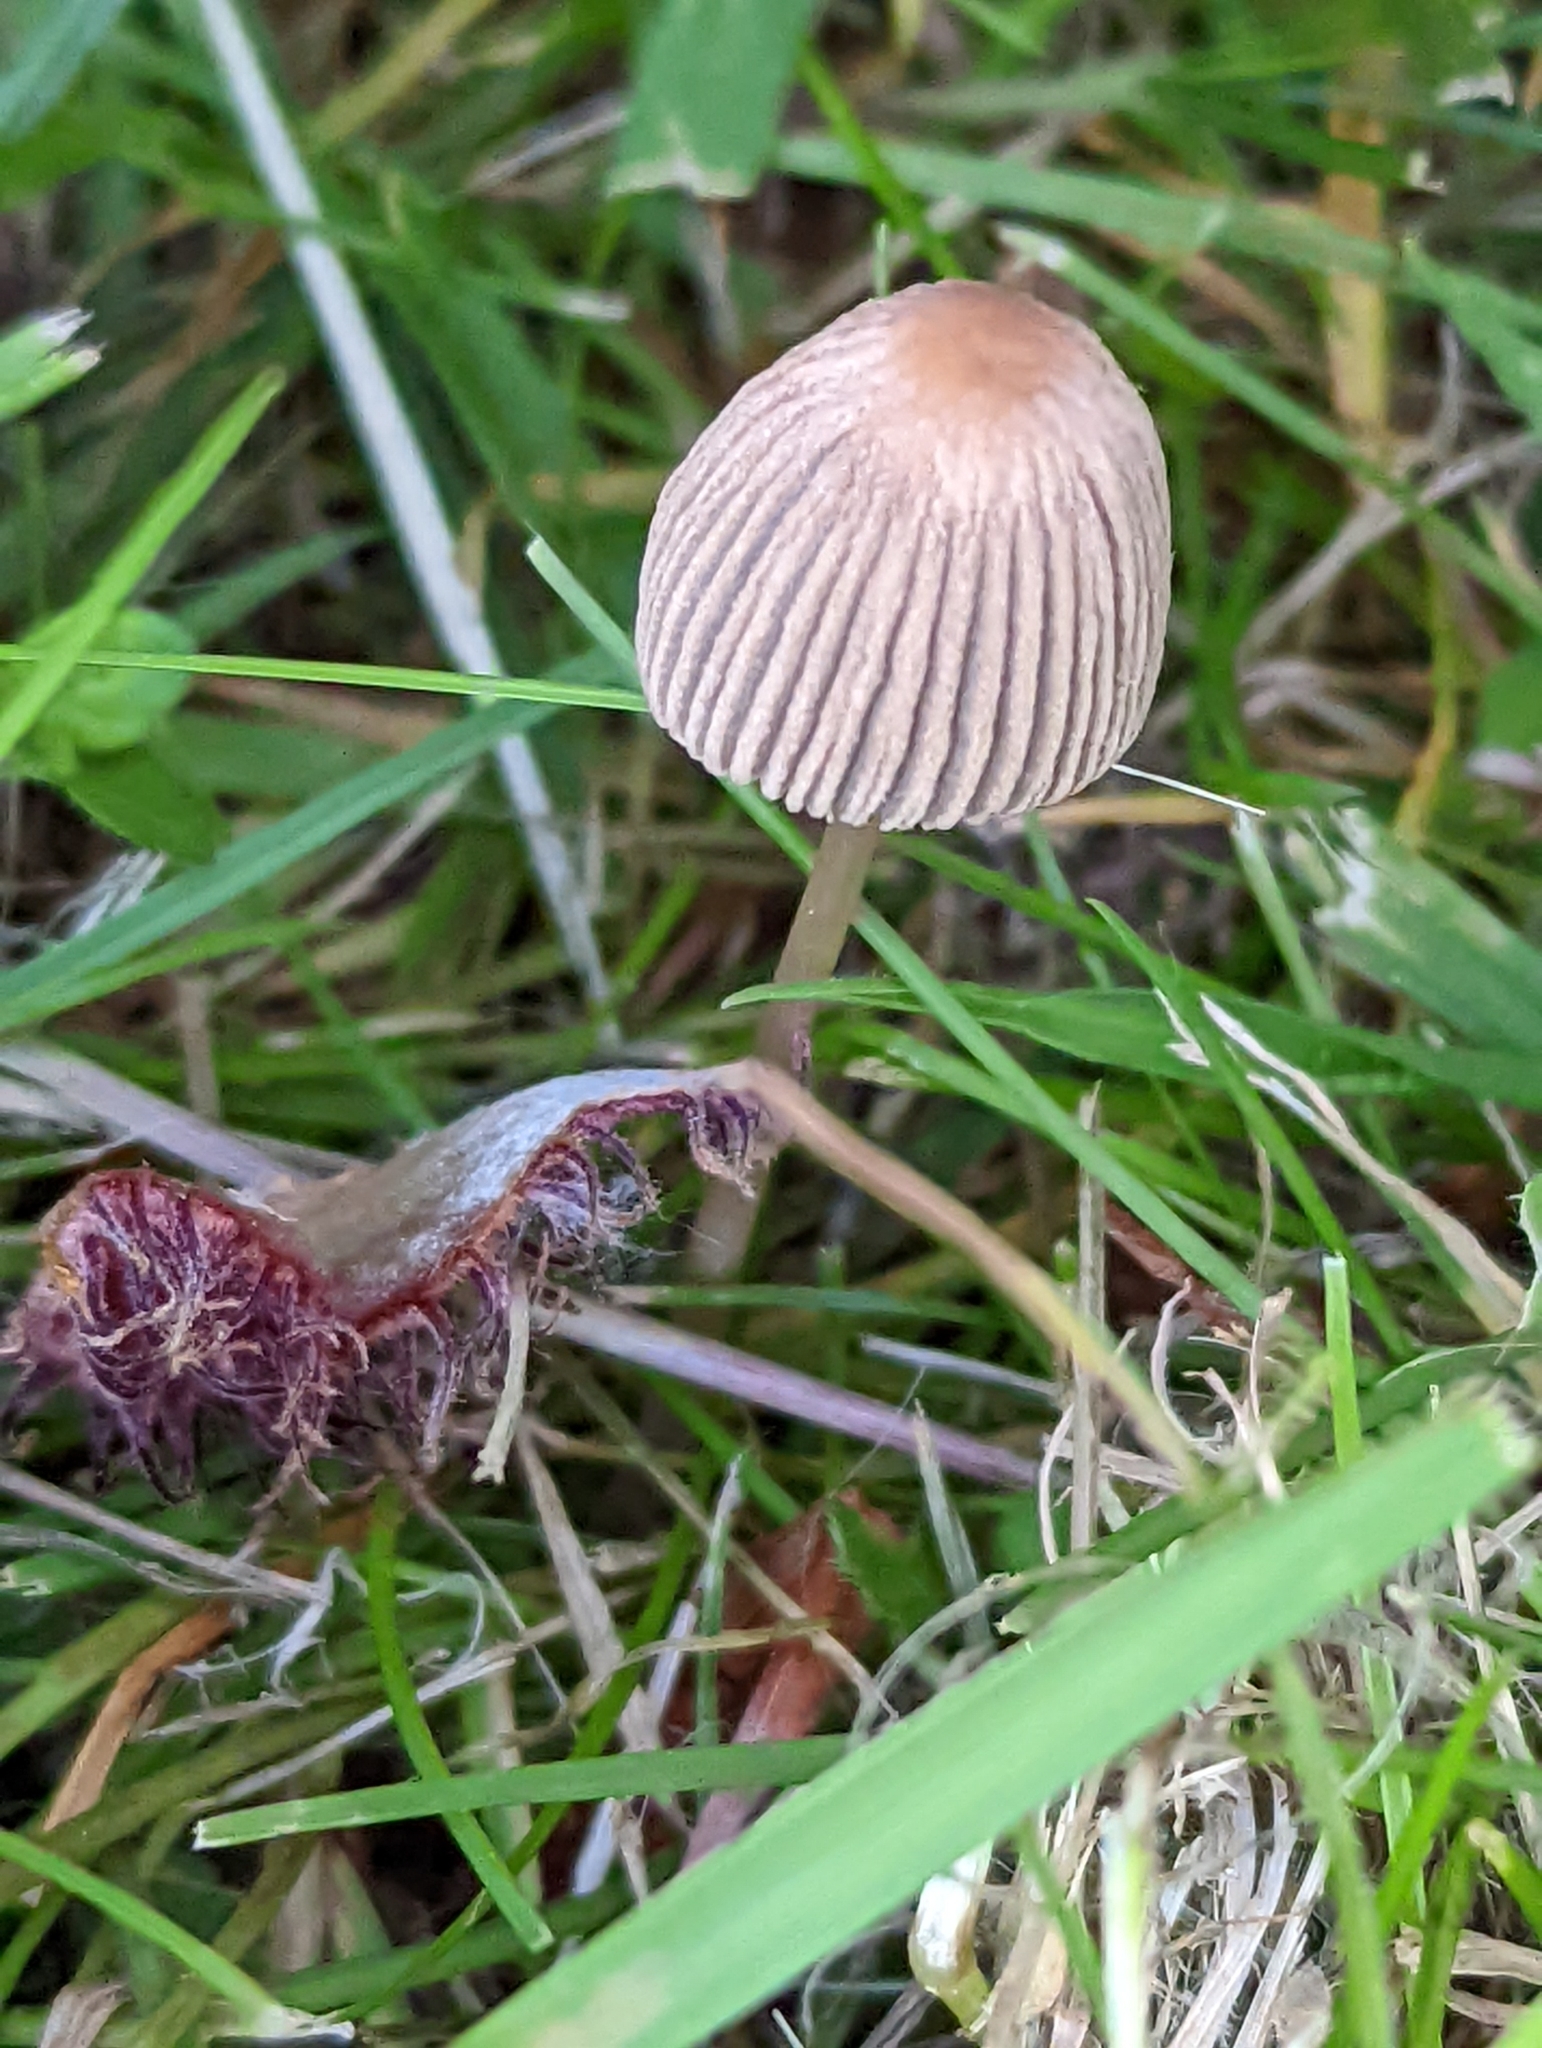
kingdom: Fungi
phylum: Basidiomycota
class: Agaricomycetes
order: Agaricales
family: Psathyrellaceae
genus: Parasola
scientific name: Parasola plicatilis
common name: Pleated inkcap
